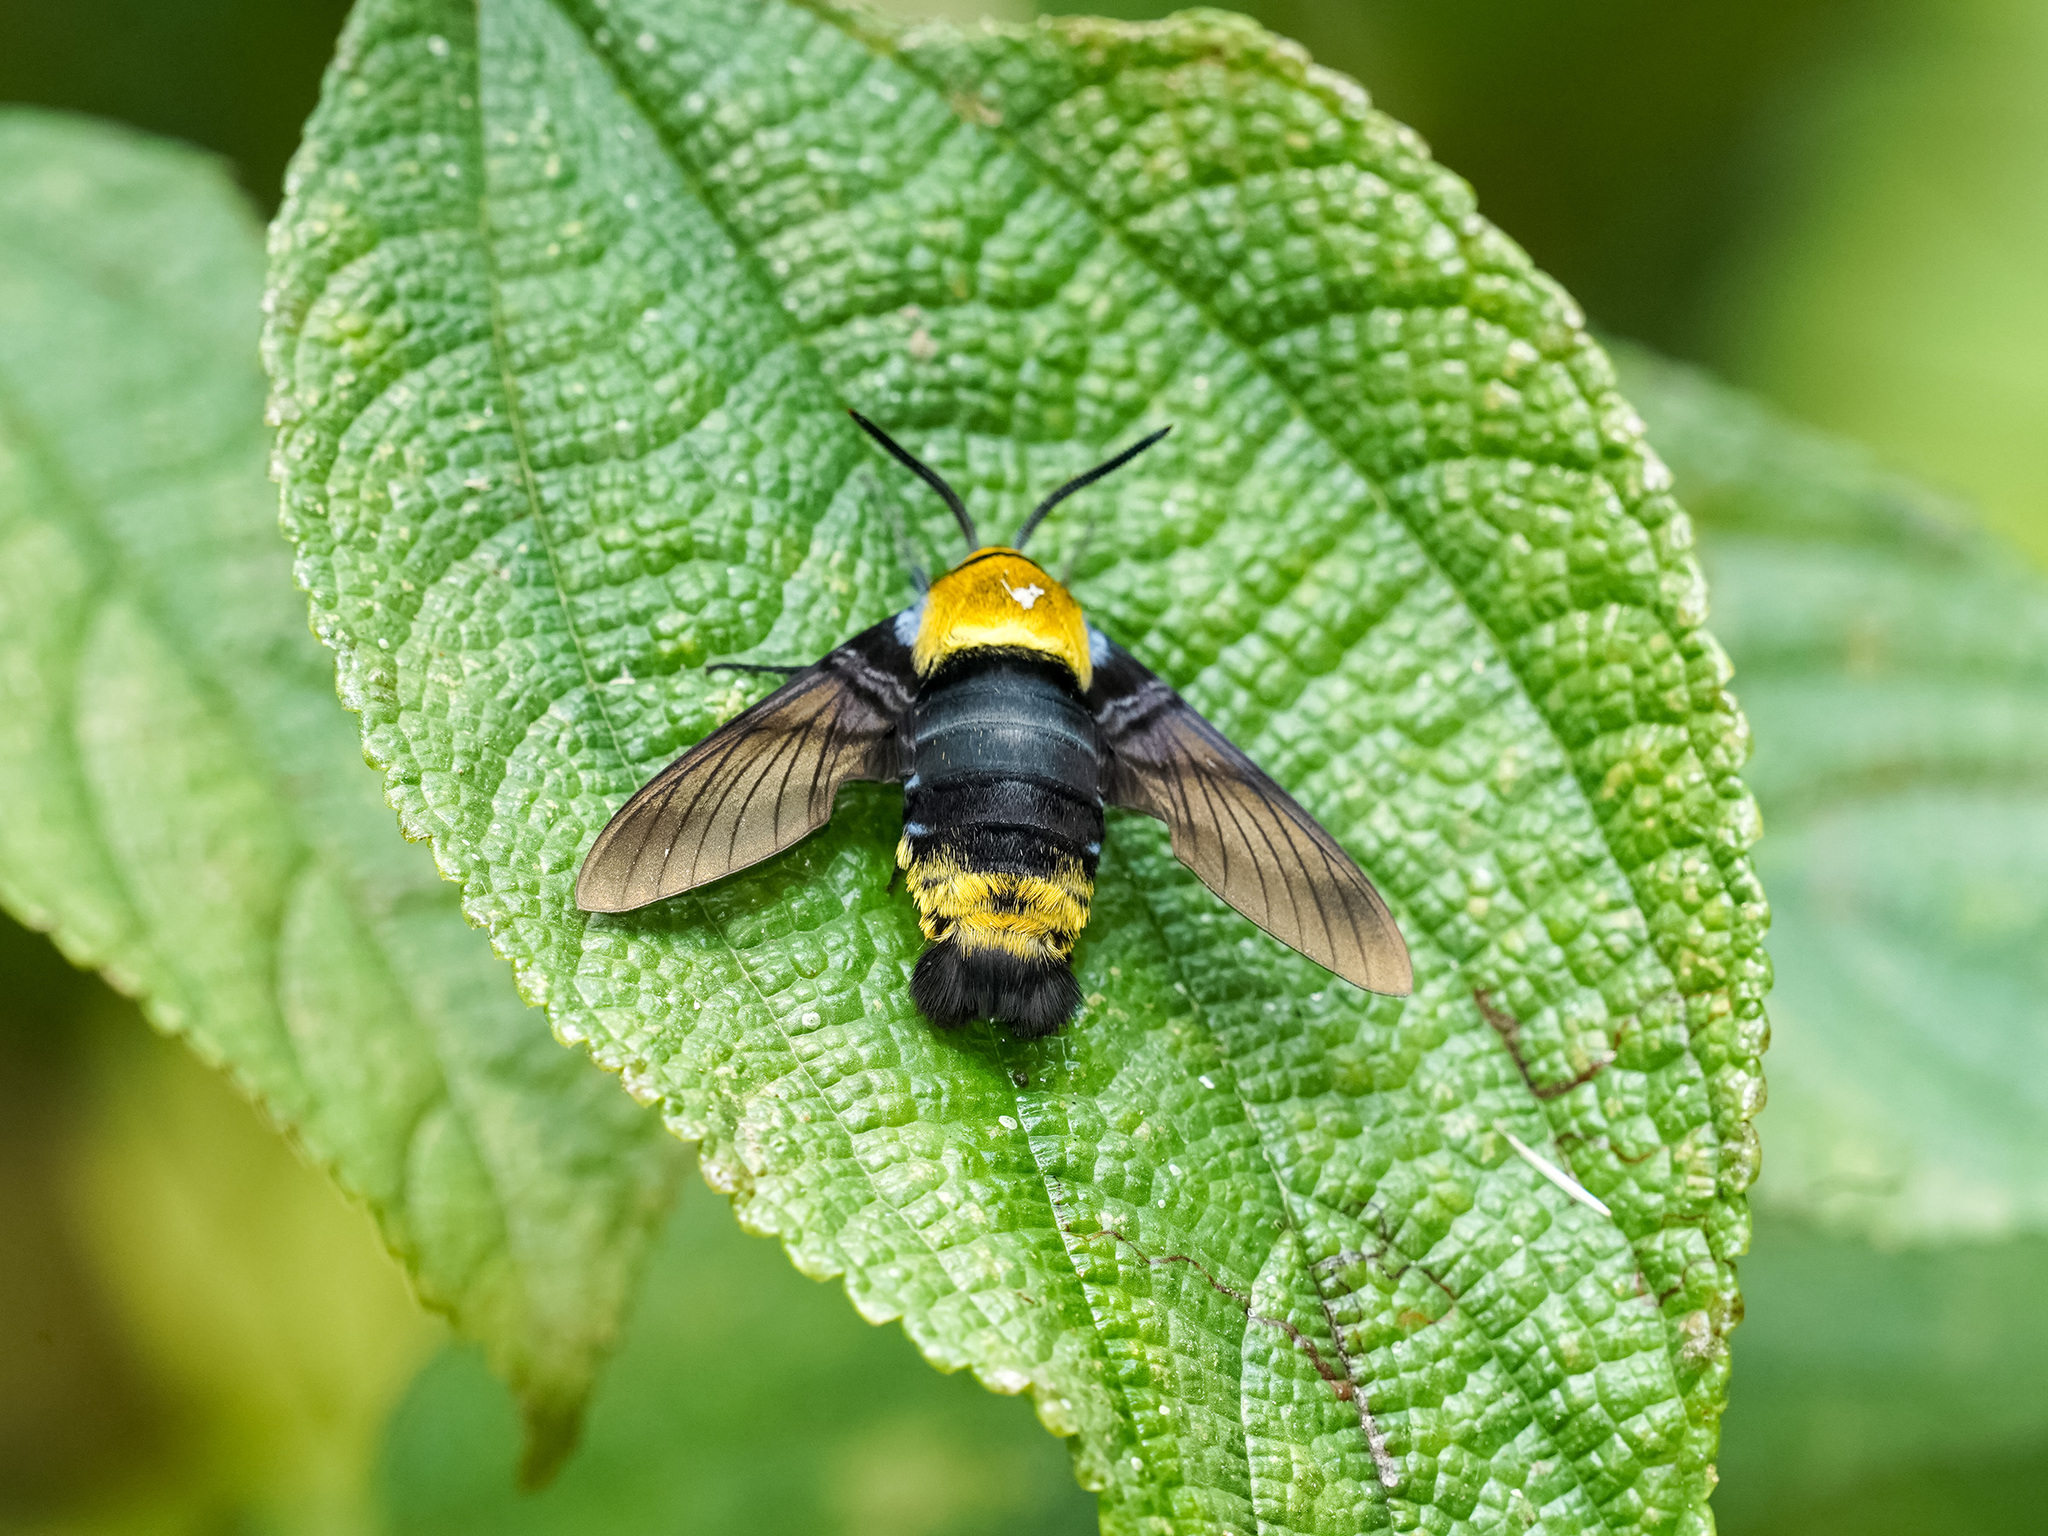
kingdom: Animalia
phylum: Arthropoda
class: Insecta
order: Lepidoptera
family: Sphingidae
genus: Sataspes
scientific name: Sataspes infernalis
